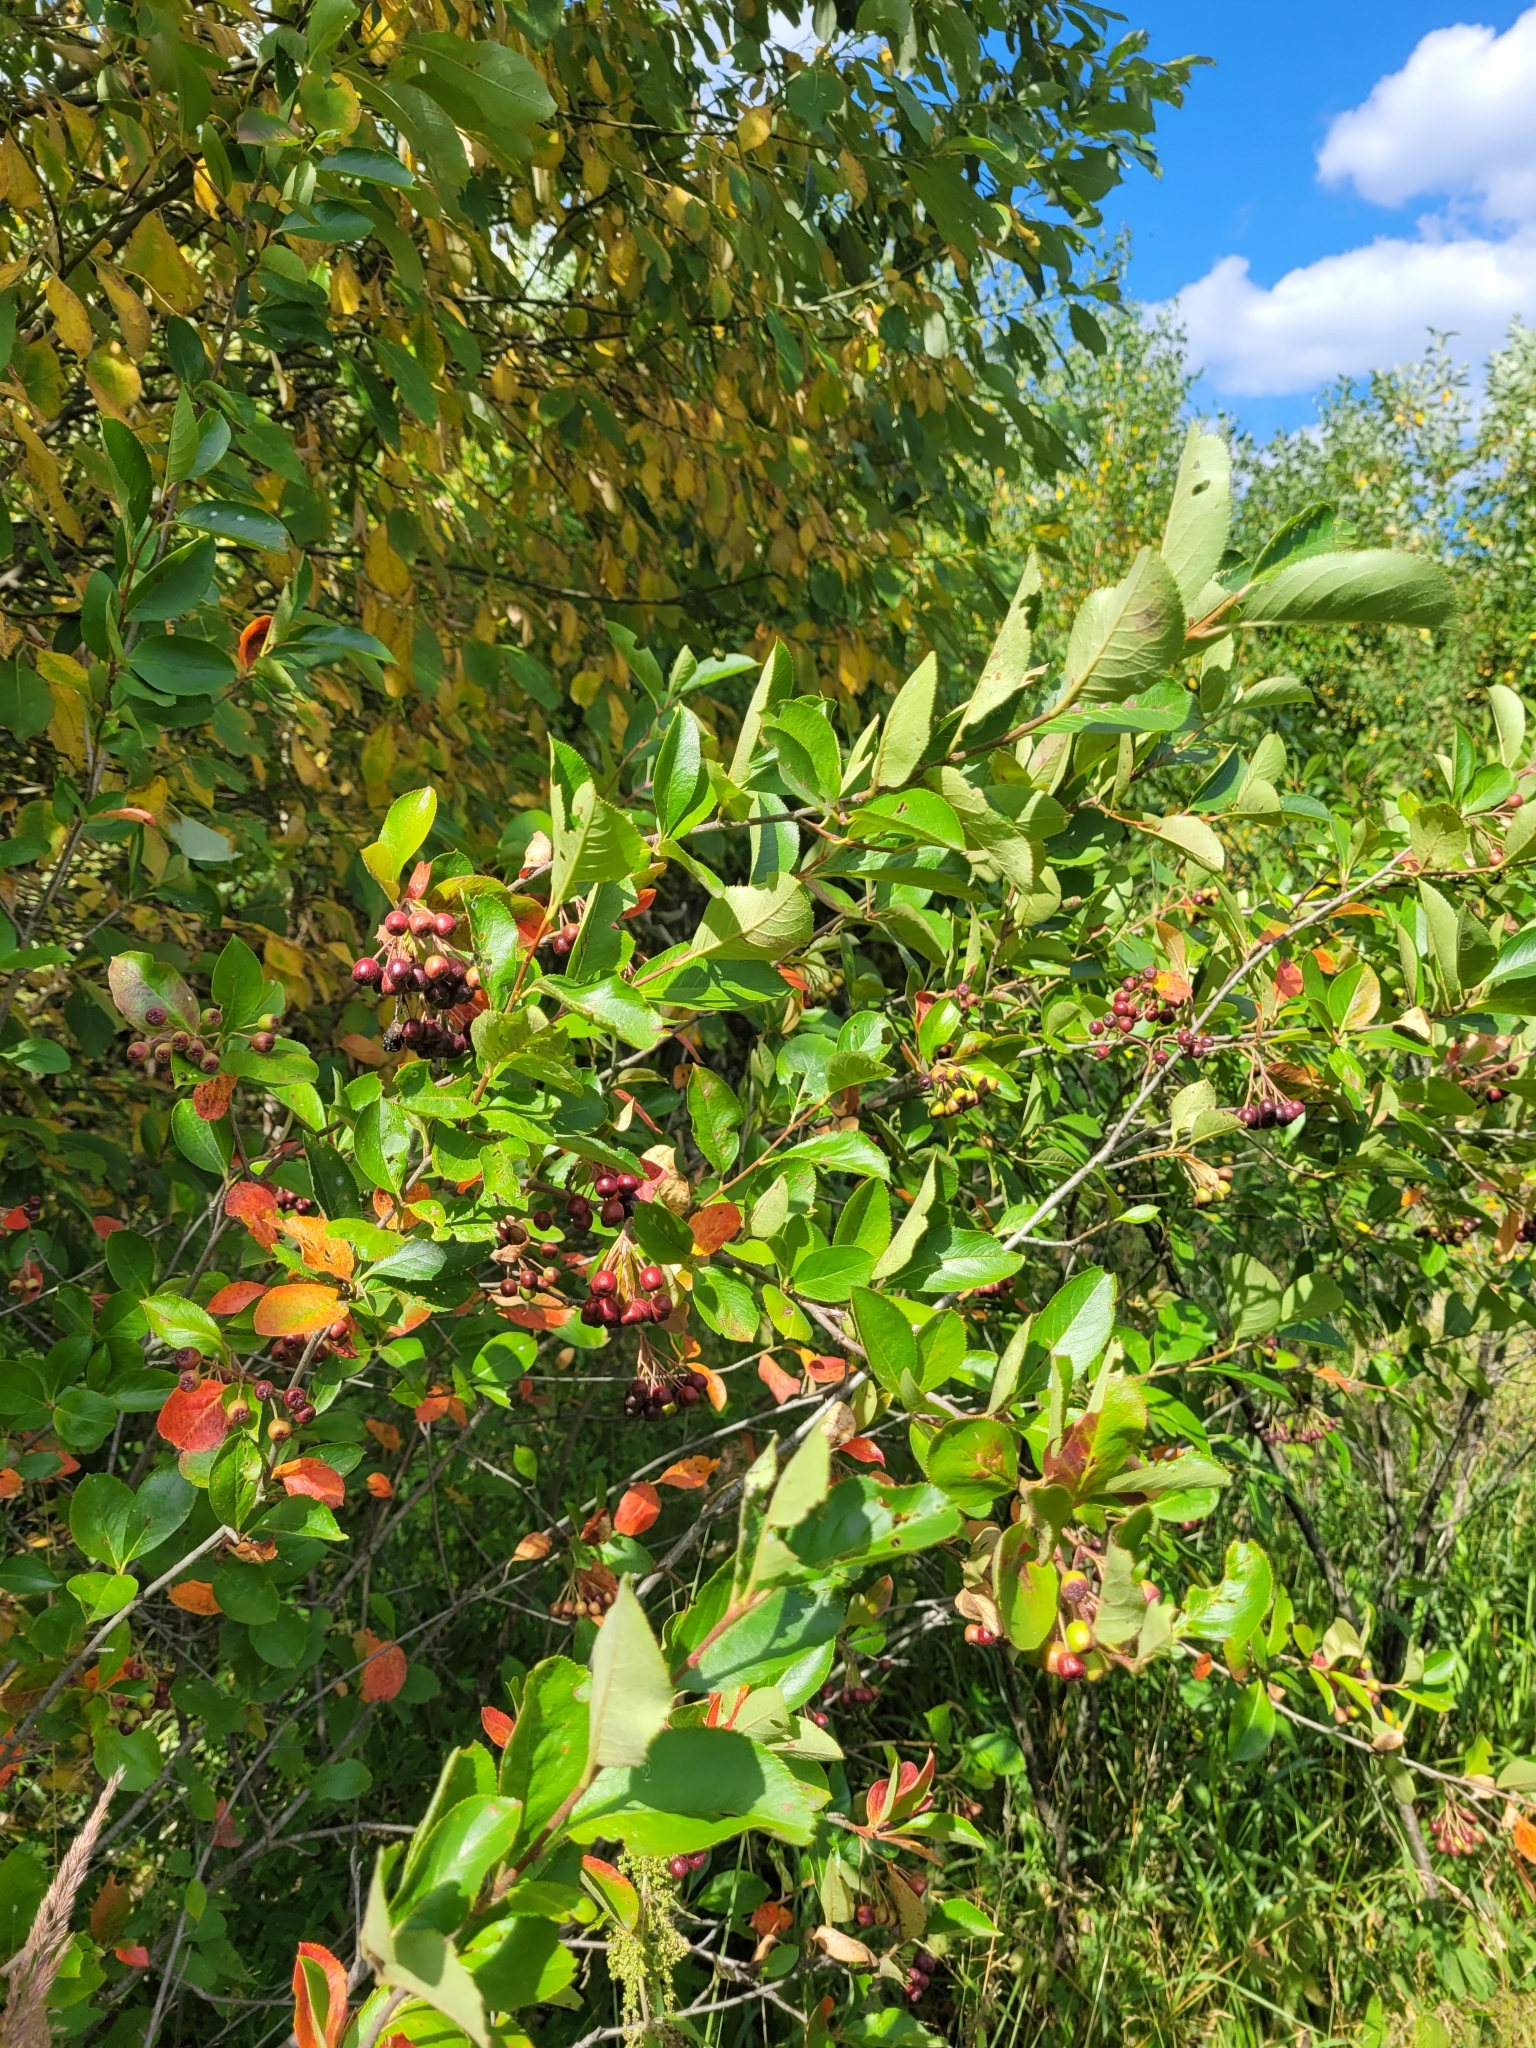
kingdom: Plantae
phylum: Tracheophyta
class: Magnoliopsida
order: Rosales
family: Rosaceae
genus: Sorbaronia
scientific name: Sorbaronia arsenii
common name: Arsène's mountain-ash
